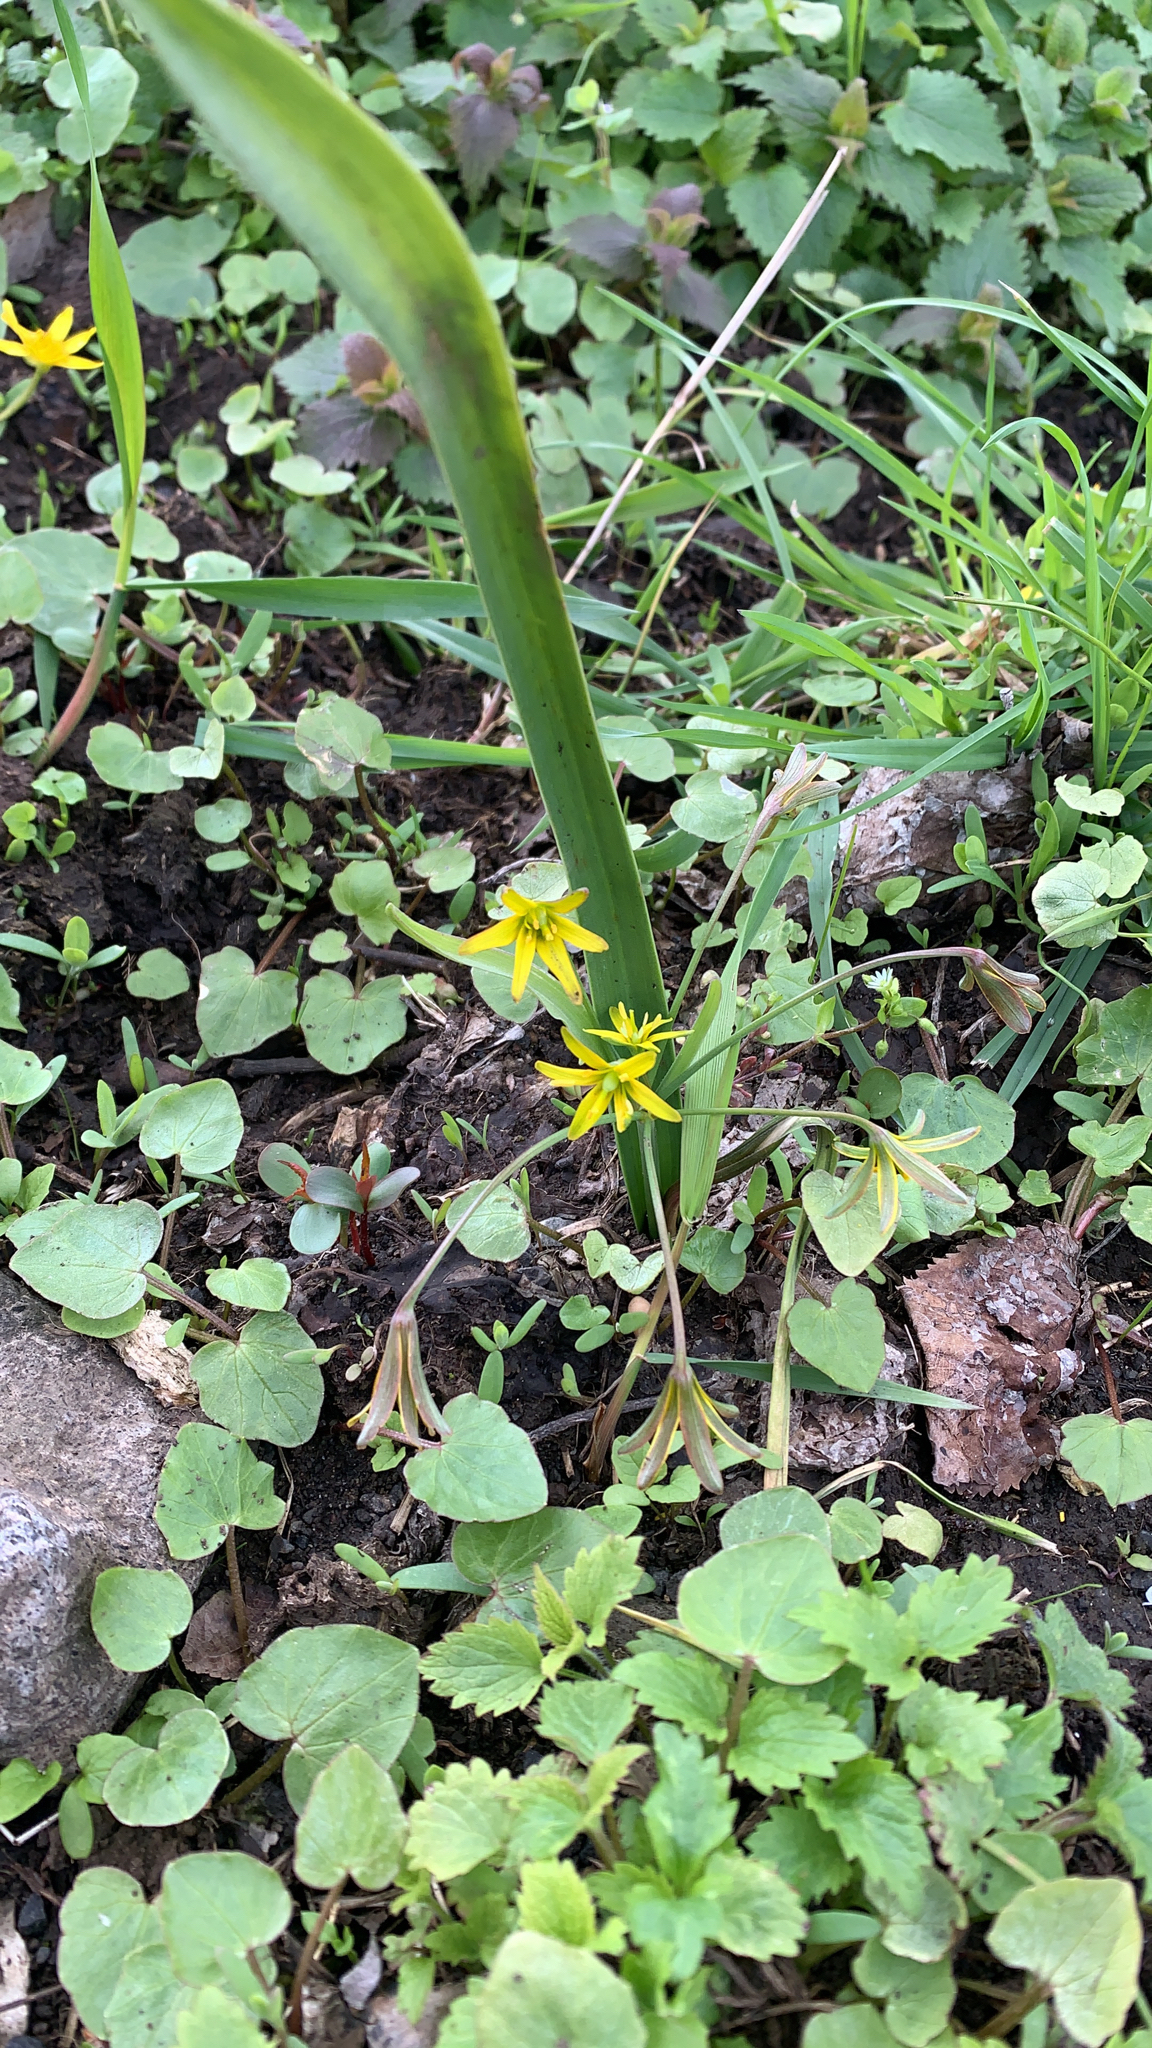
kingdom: Plantae
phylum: Tracheophyta
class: Liliopsida
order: Liliales
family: Liliaceae
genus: Gagea
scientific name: Gagea lutea
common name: Yellow star-of-bethlehem
